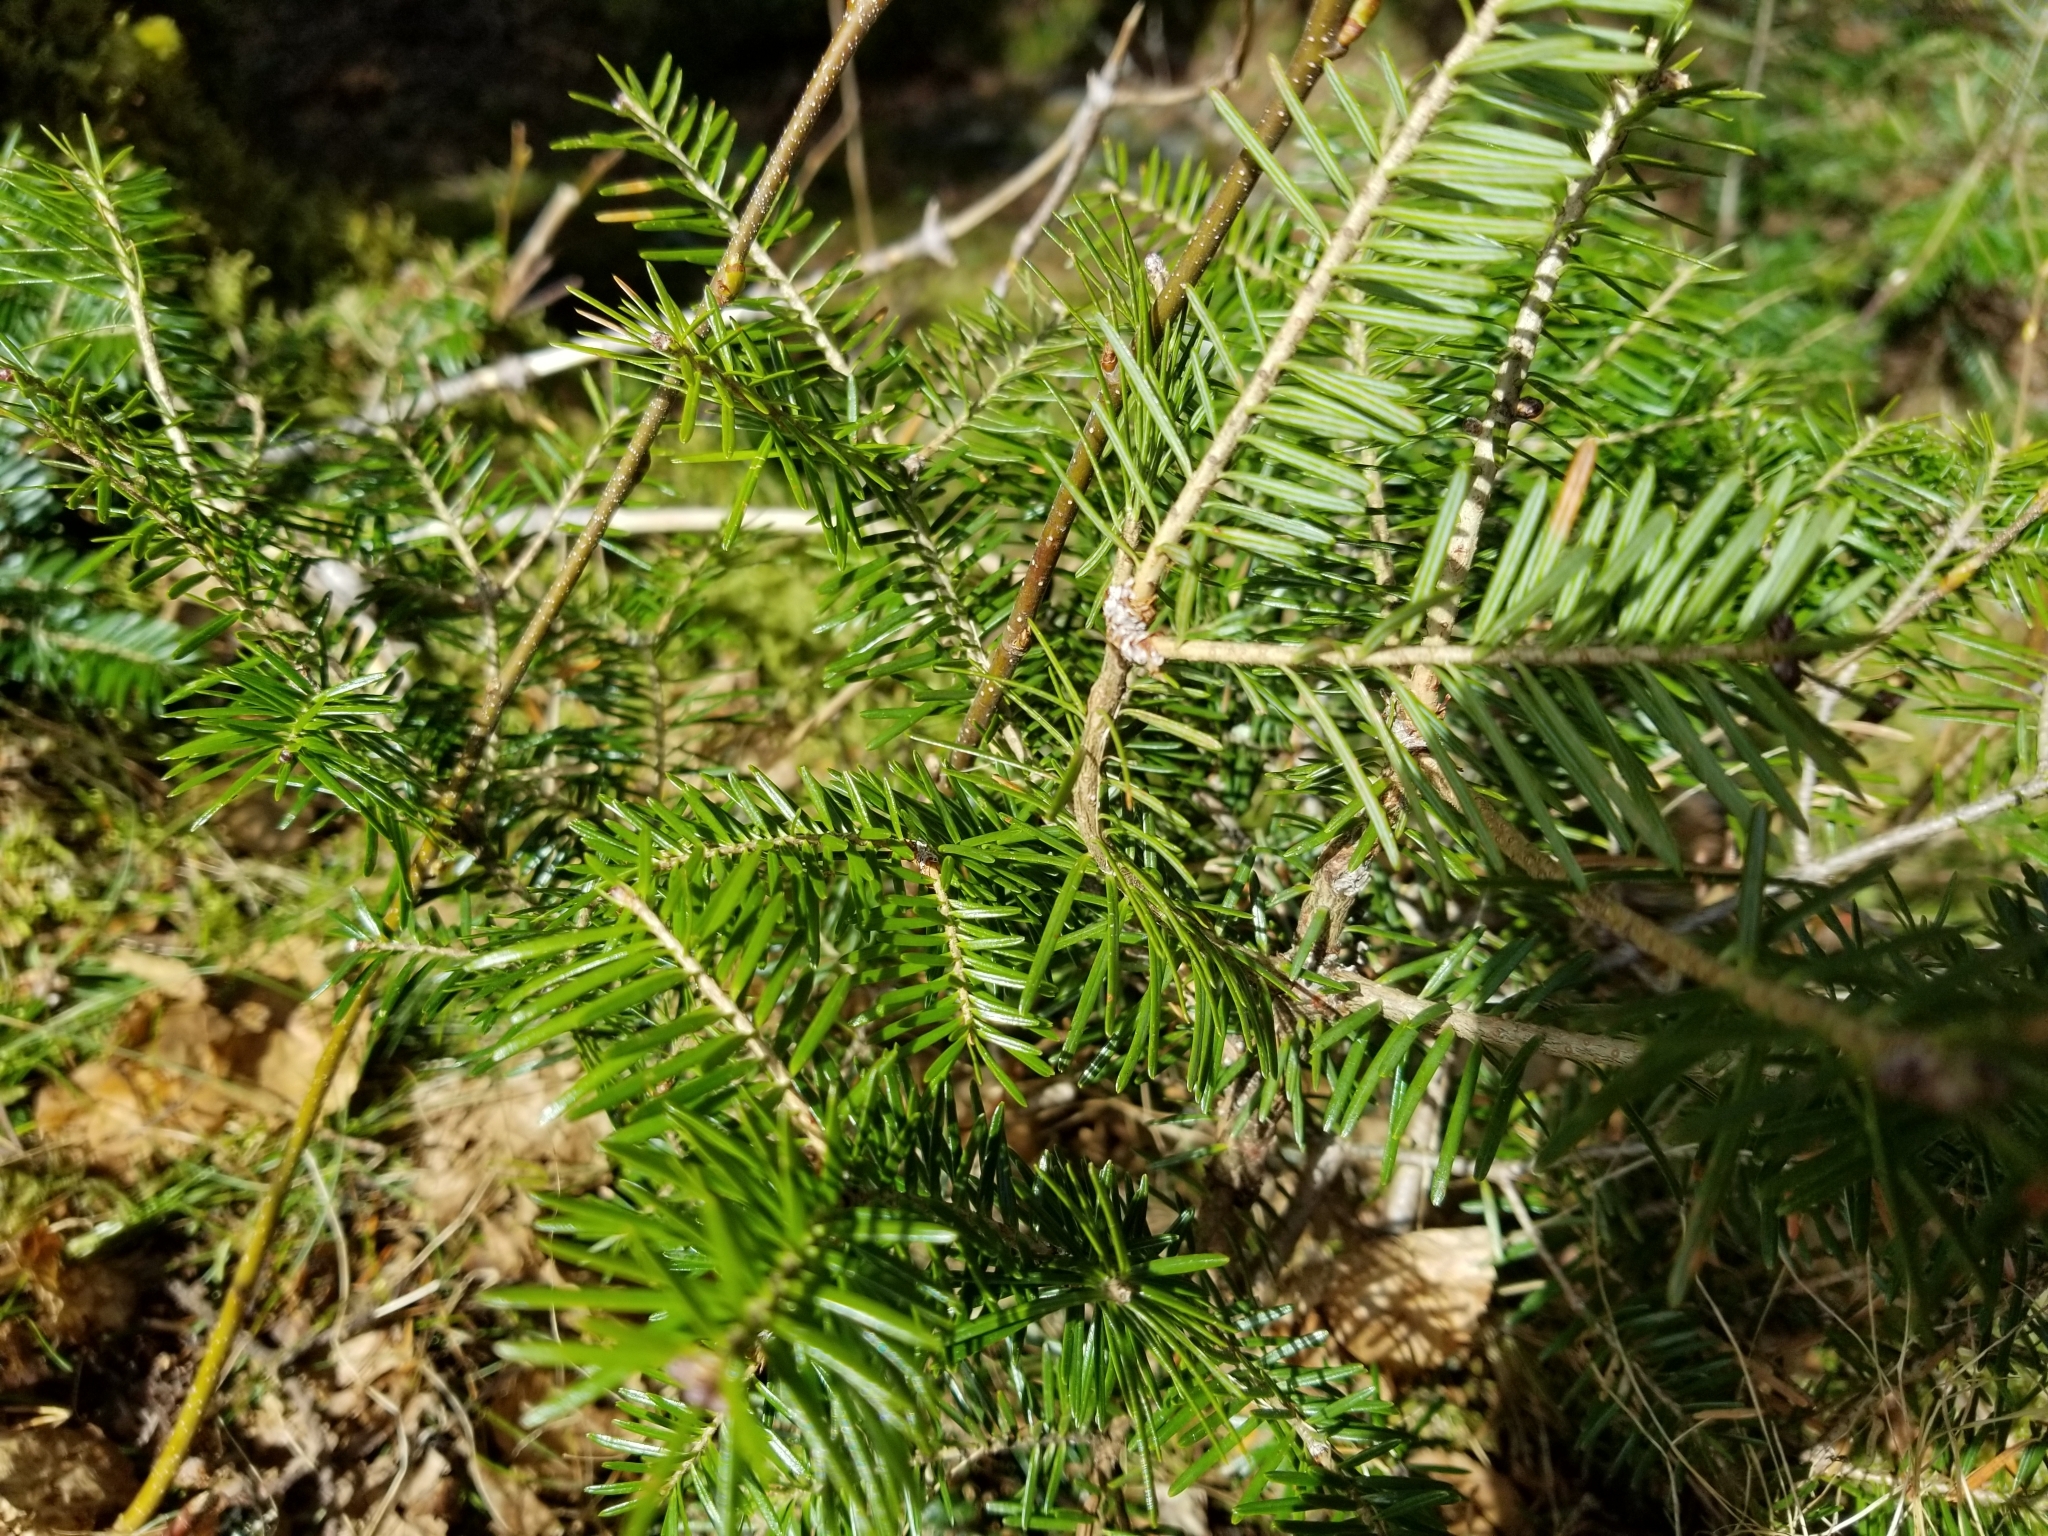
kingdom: Plantae
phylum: Tracheophyta
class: Pinopsida
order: Pinales
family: Pinaceae
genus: Abies
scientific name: Abies balsamea
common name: Balsam fir
